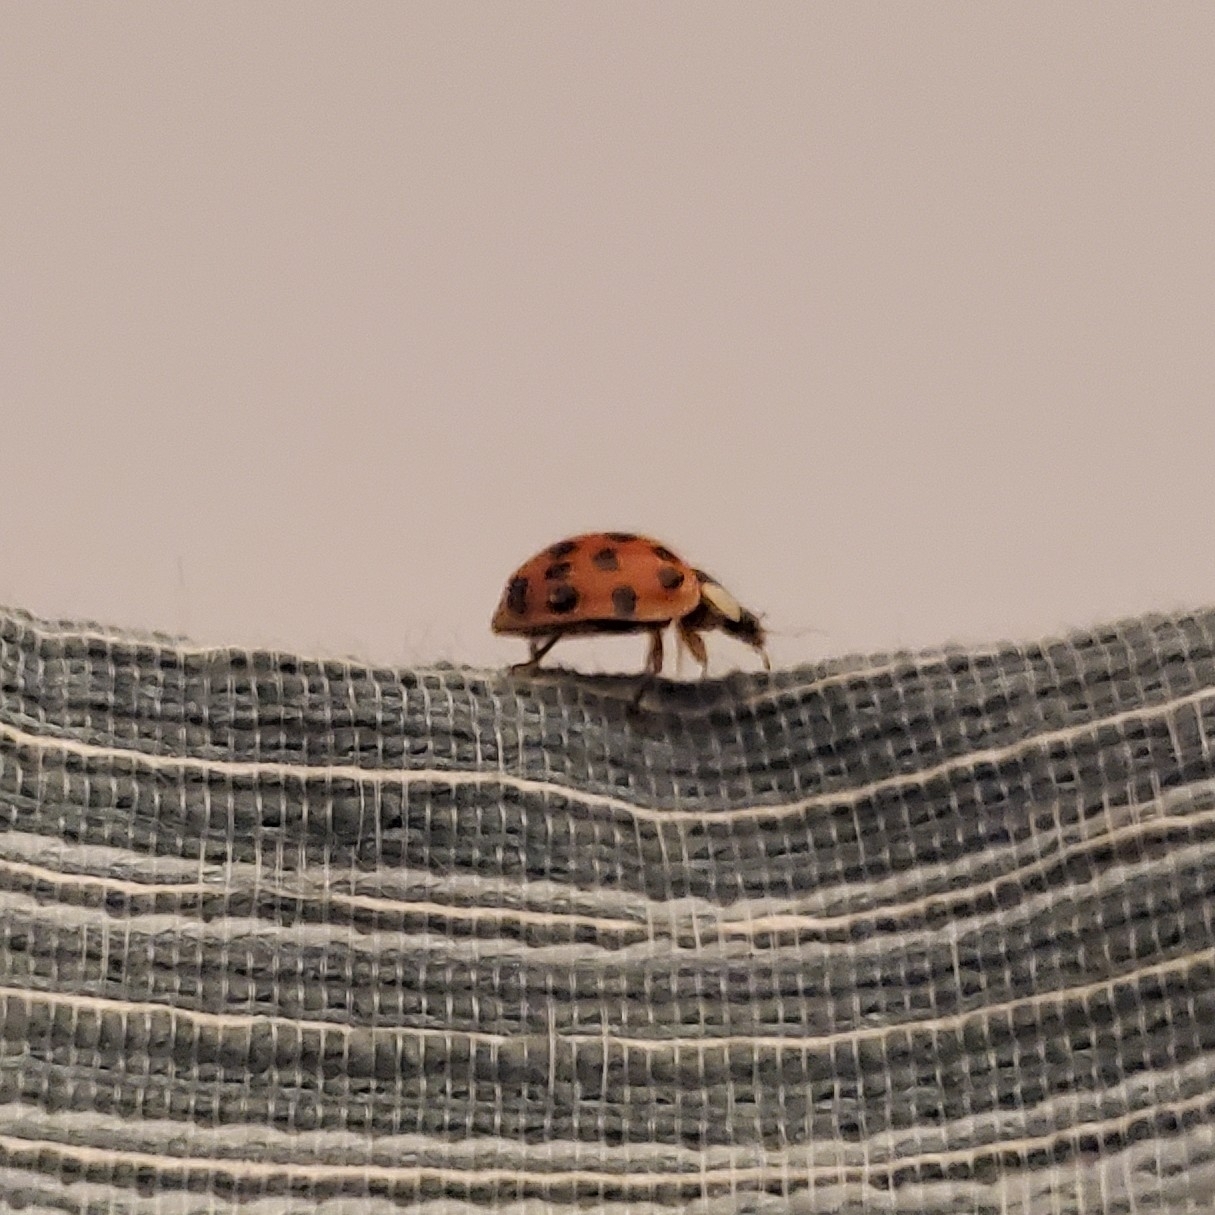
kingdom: Animalia
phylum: Arthropoda
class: Insecta
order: Coleoptera
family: Coccinellidae
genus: Harmonia
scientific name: Harmonia axyridis
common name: Harlequin ladybird
